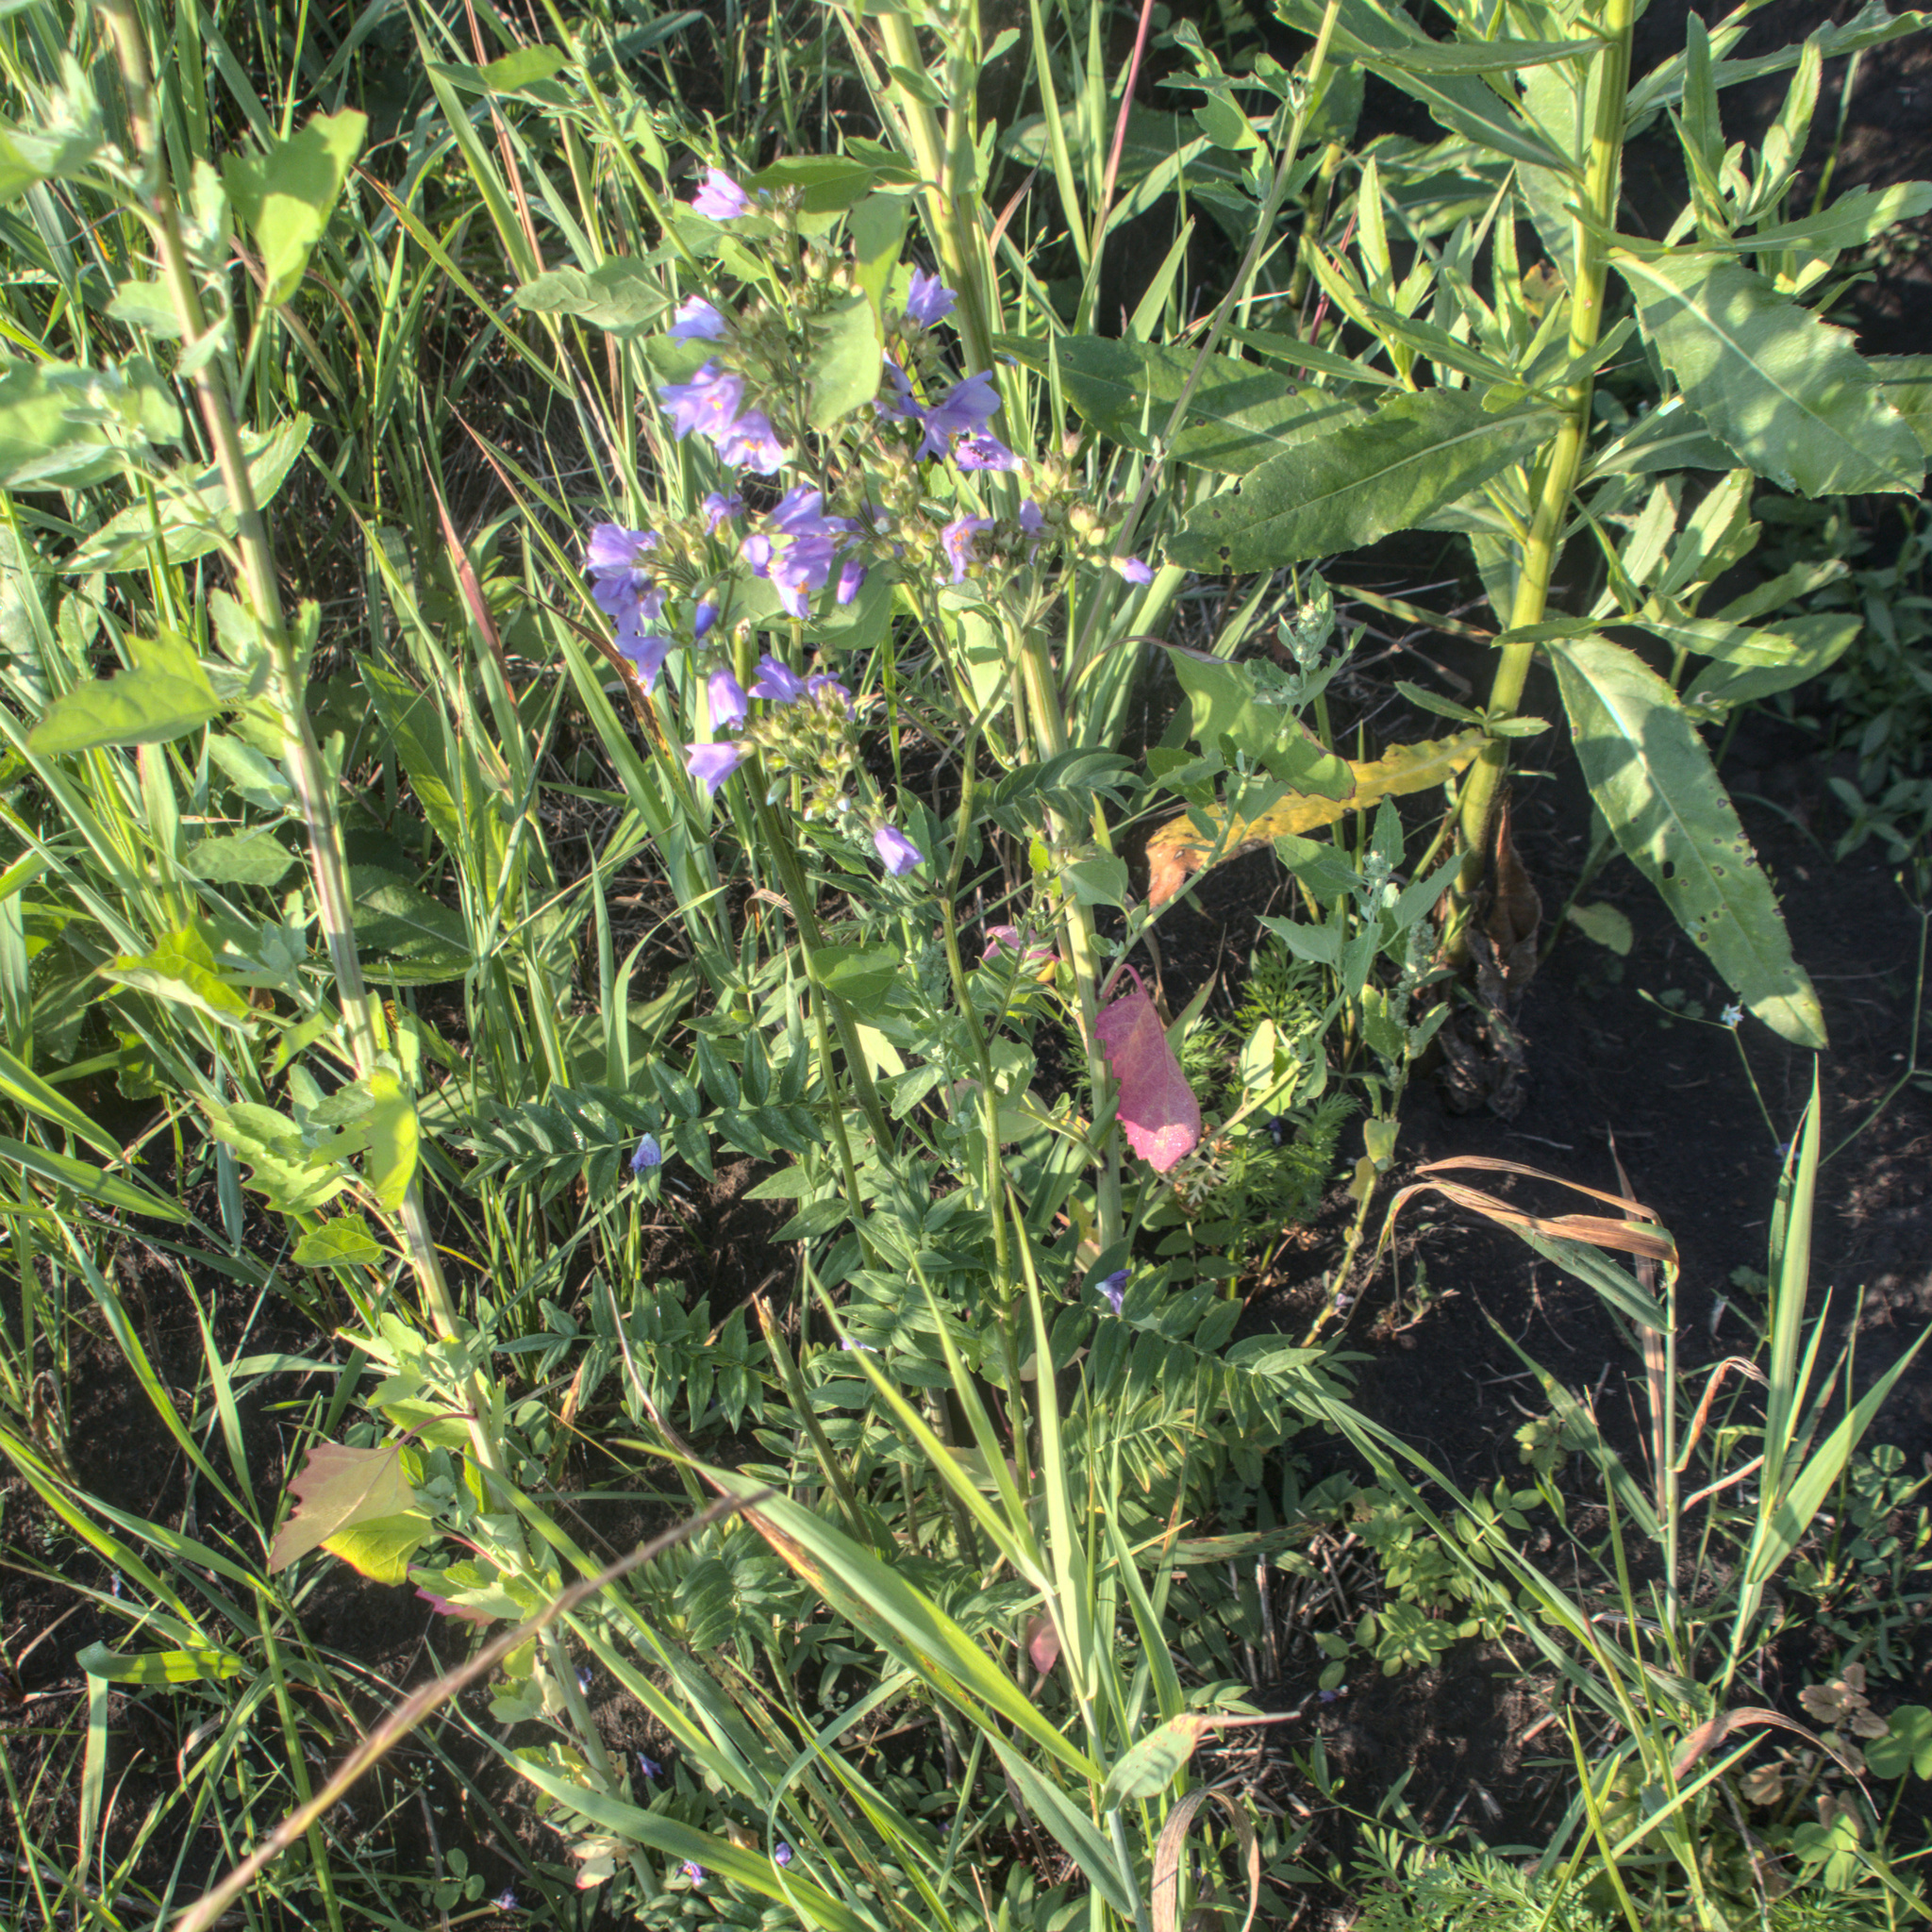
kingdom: Plantae
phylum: Tracheophyta
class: Magnoliopsida
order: Ericales
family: Polemoniaceae
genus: Polemonium
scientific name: Polemonium caeruleum
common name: Jacob's-ladder
